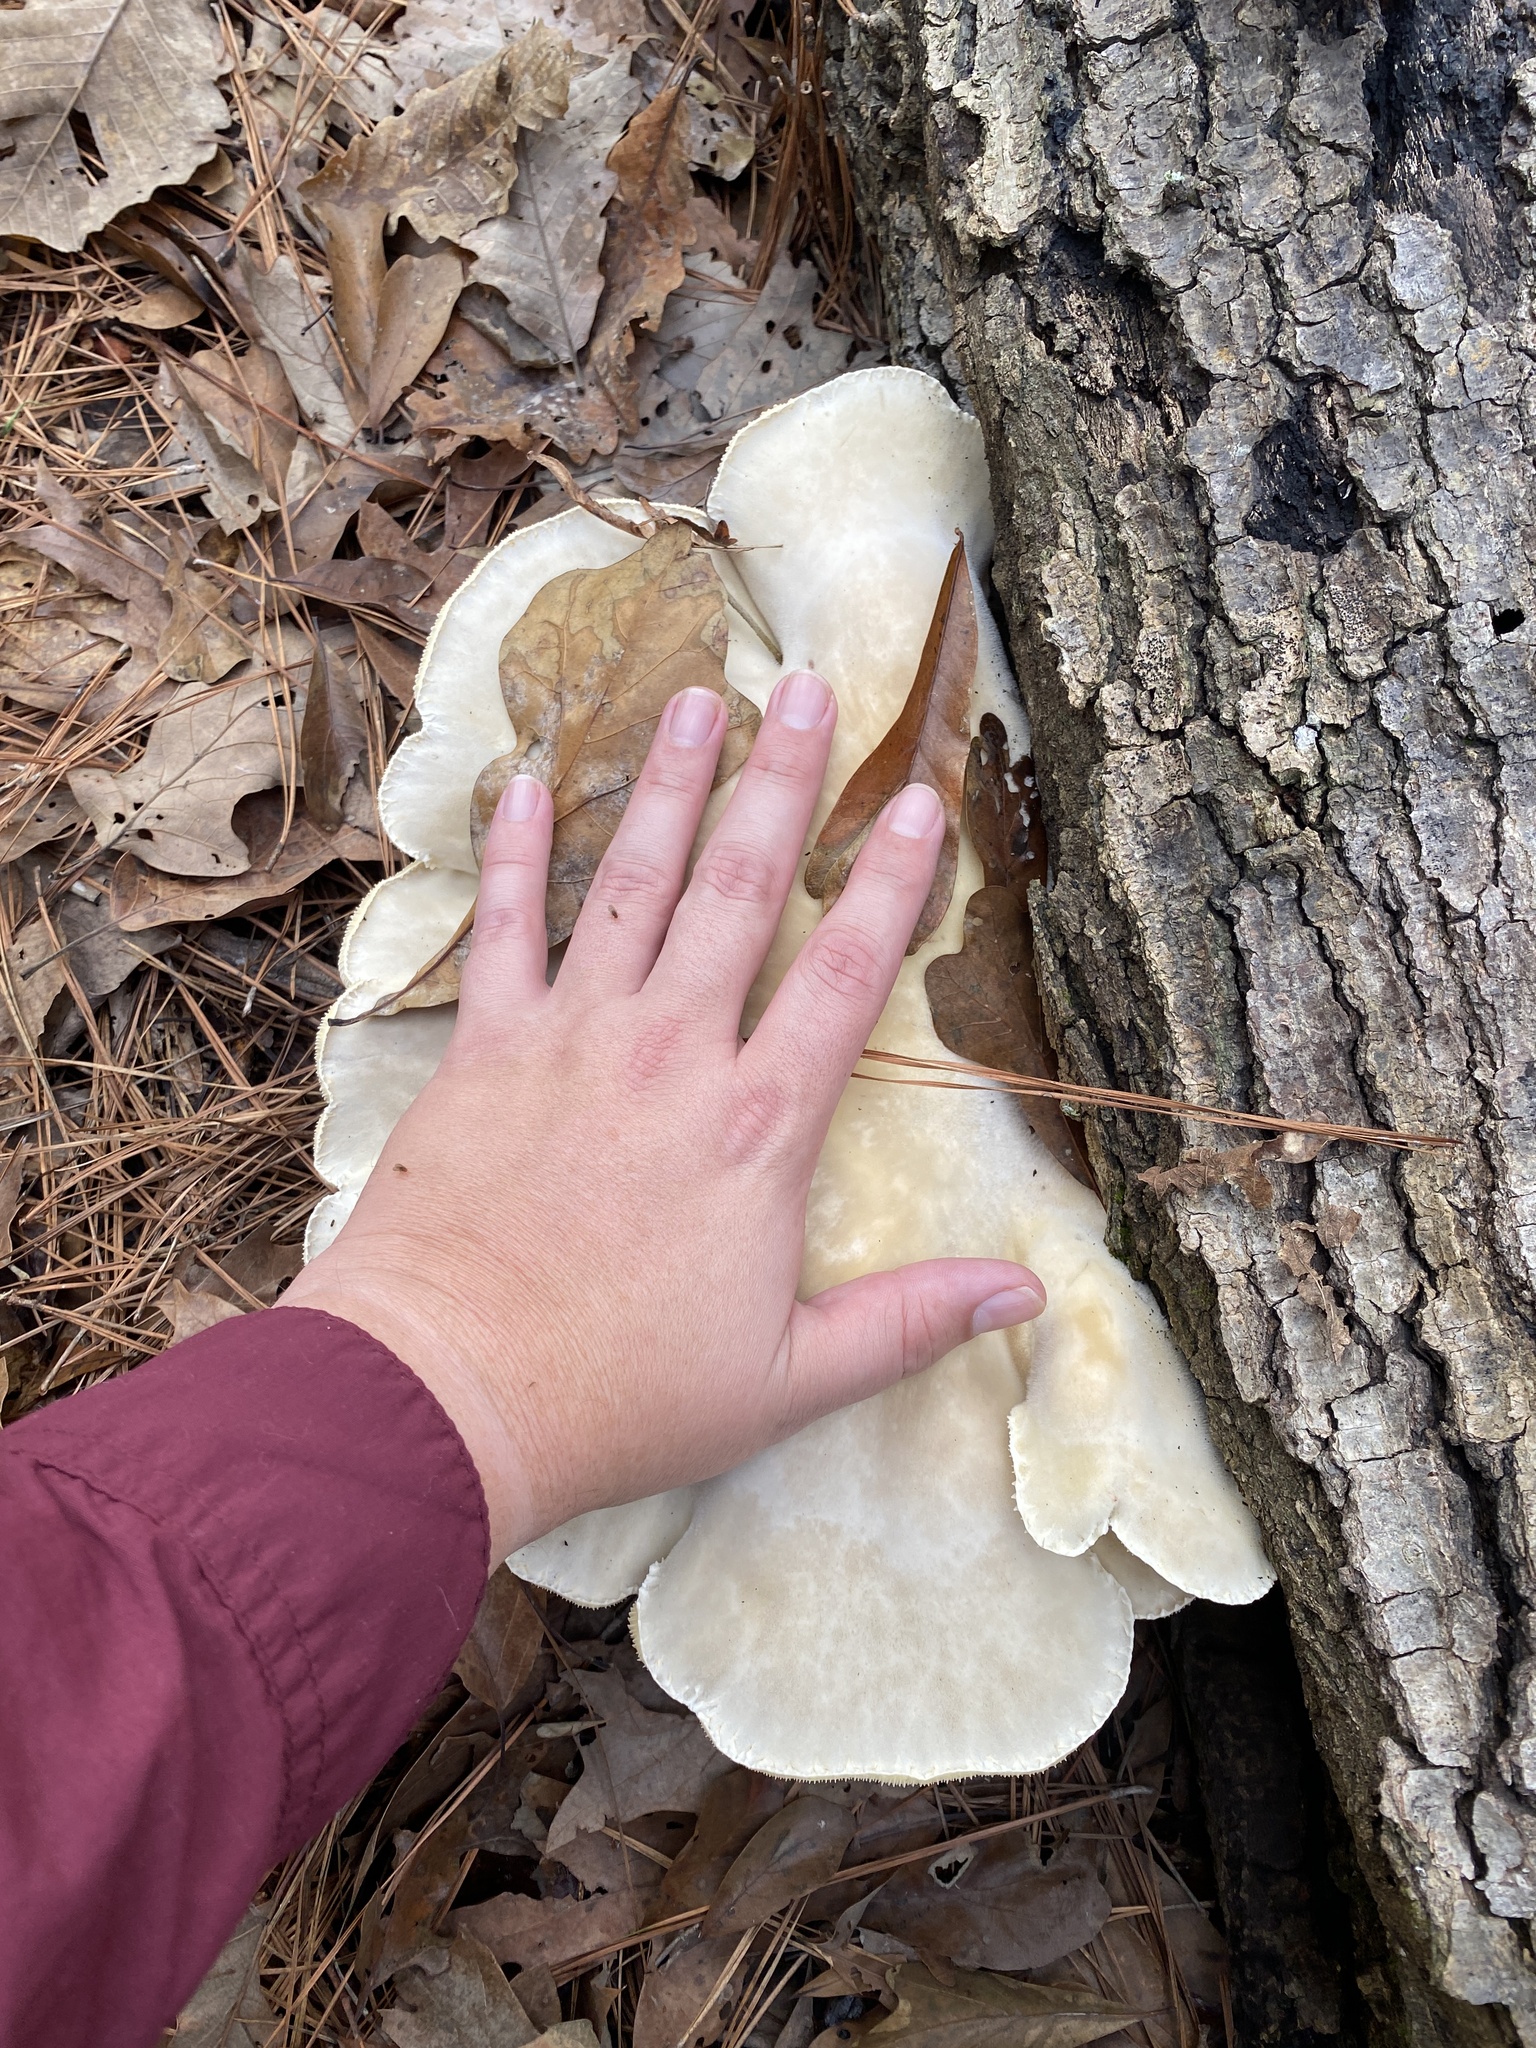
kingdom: Fungi
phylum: Basidiomycota
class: Agaricomycetes
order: Polyporales
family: Polyporaceae
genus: Lentinus
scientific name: Lentinus levis
